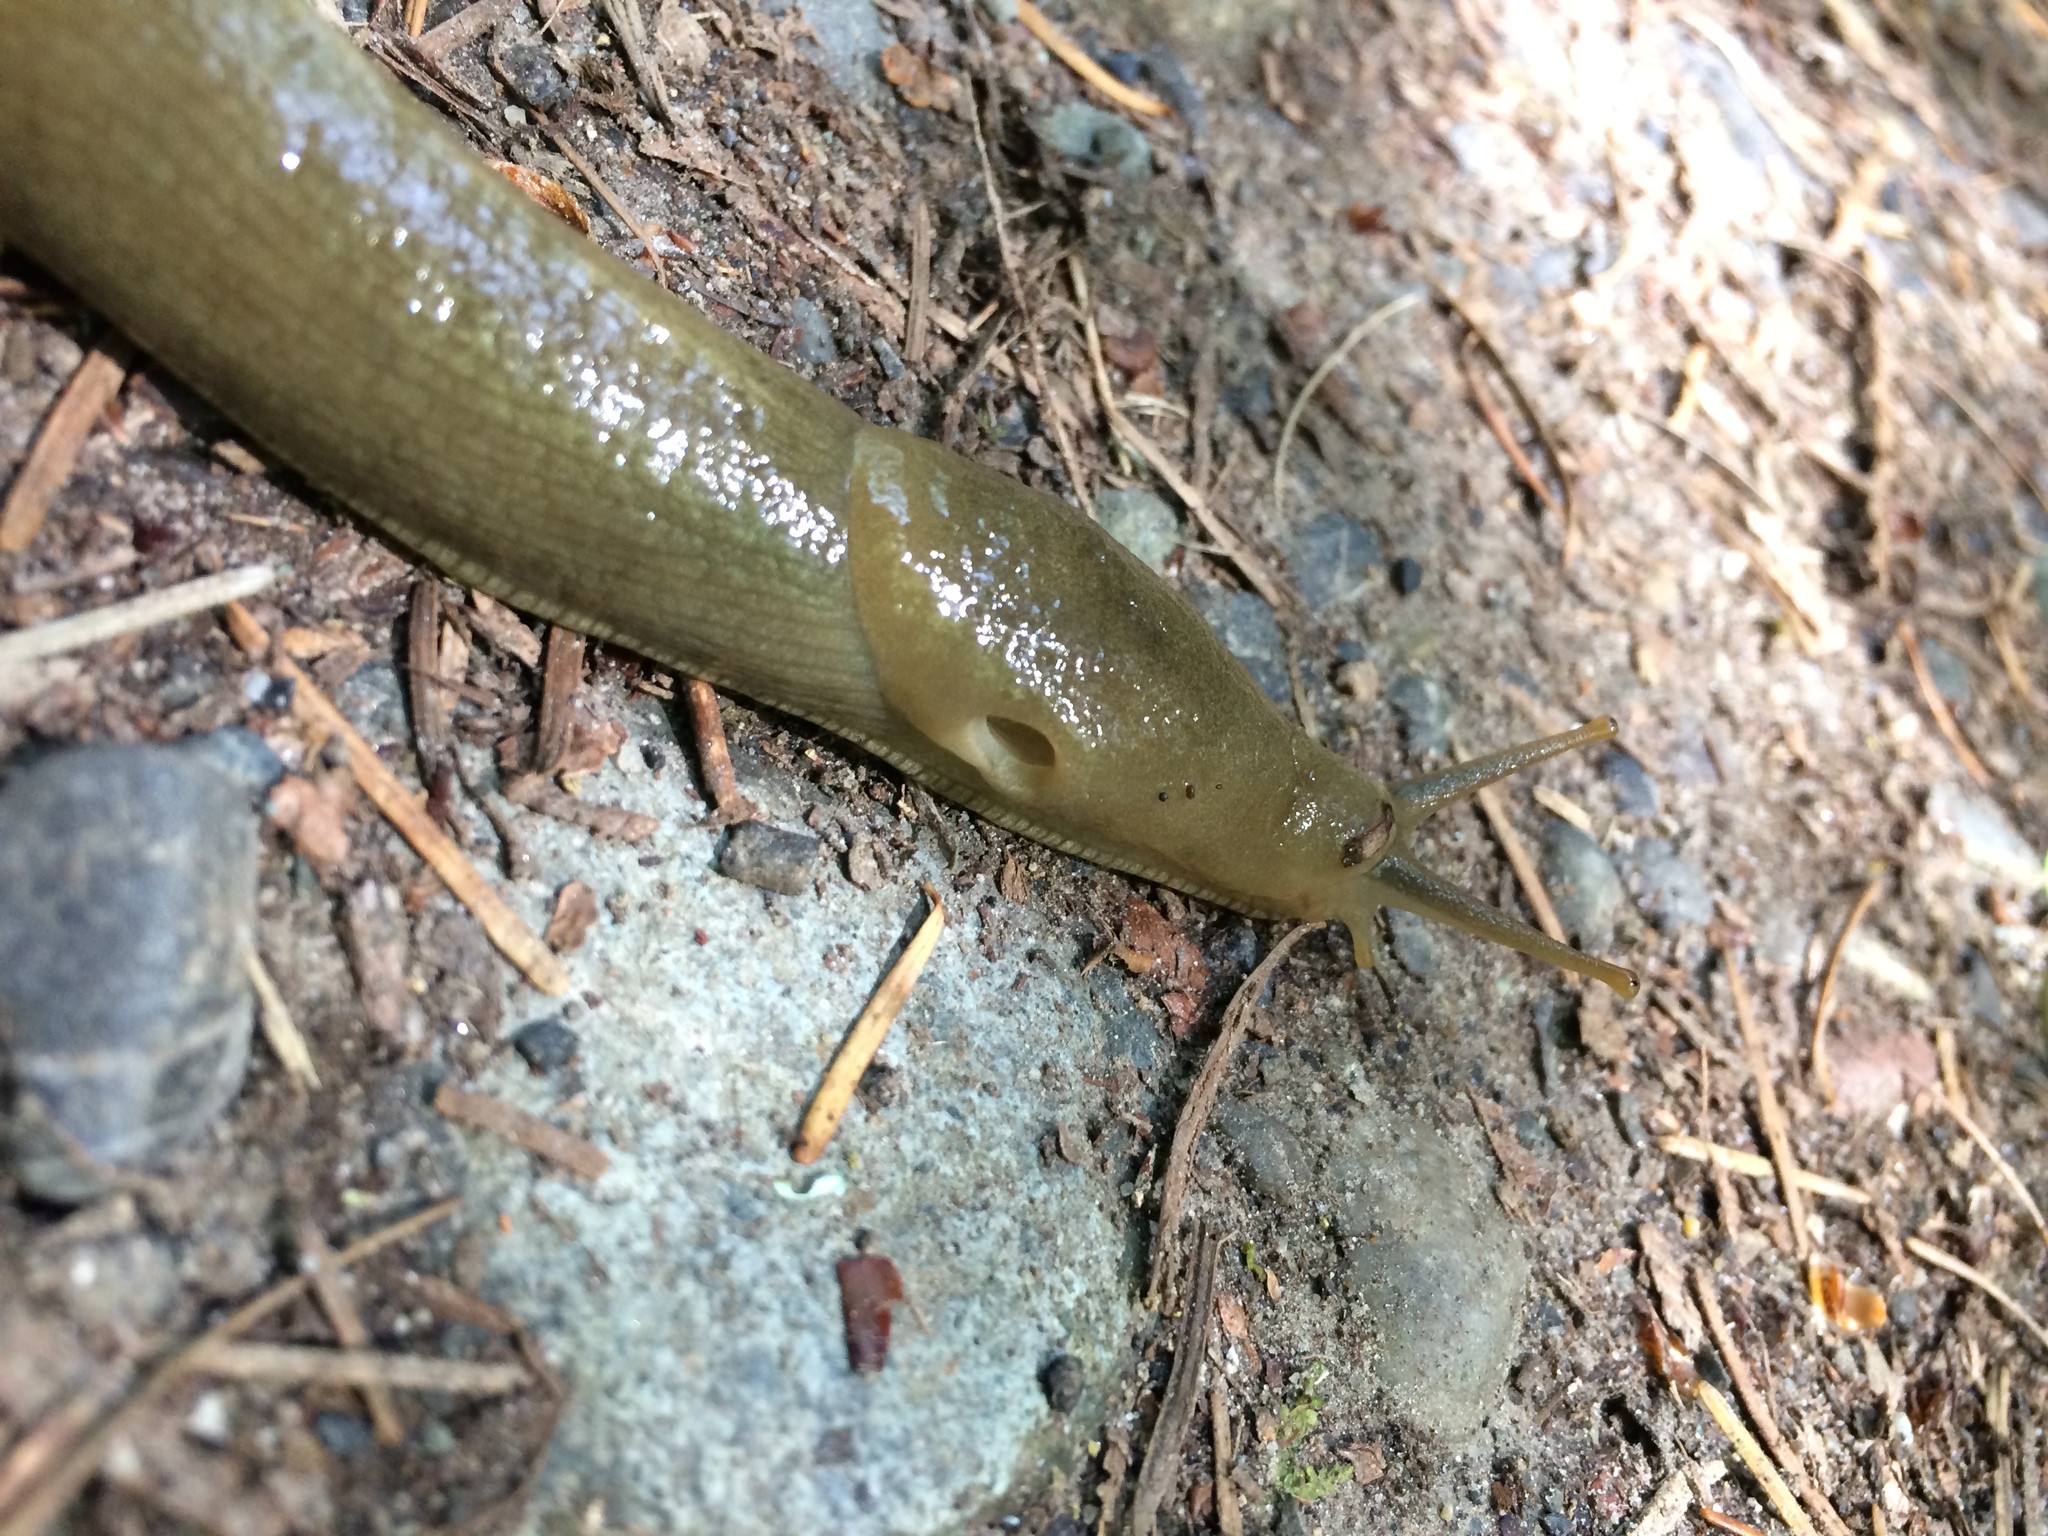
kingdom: Animalia
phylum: Mollusca
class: Gastropoda
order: Stylommatophora
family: Ariolimacidae
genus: Ariolimax
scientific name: Ariolimax columbianus
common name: Pacific banana slug
